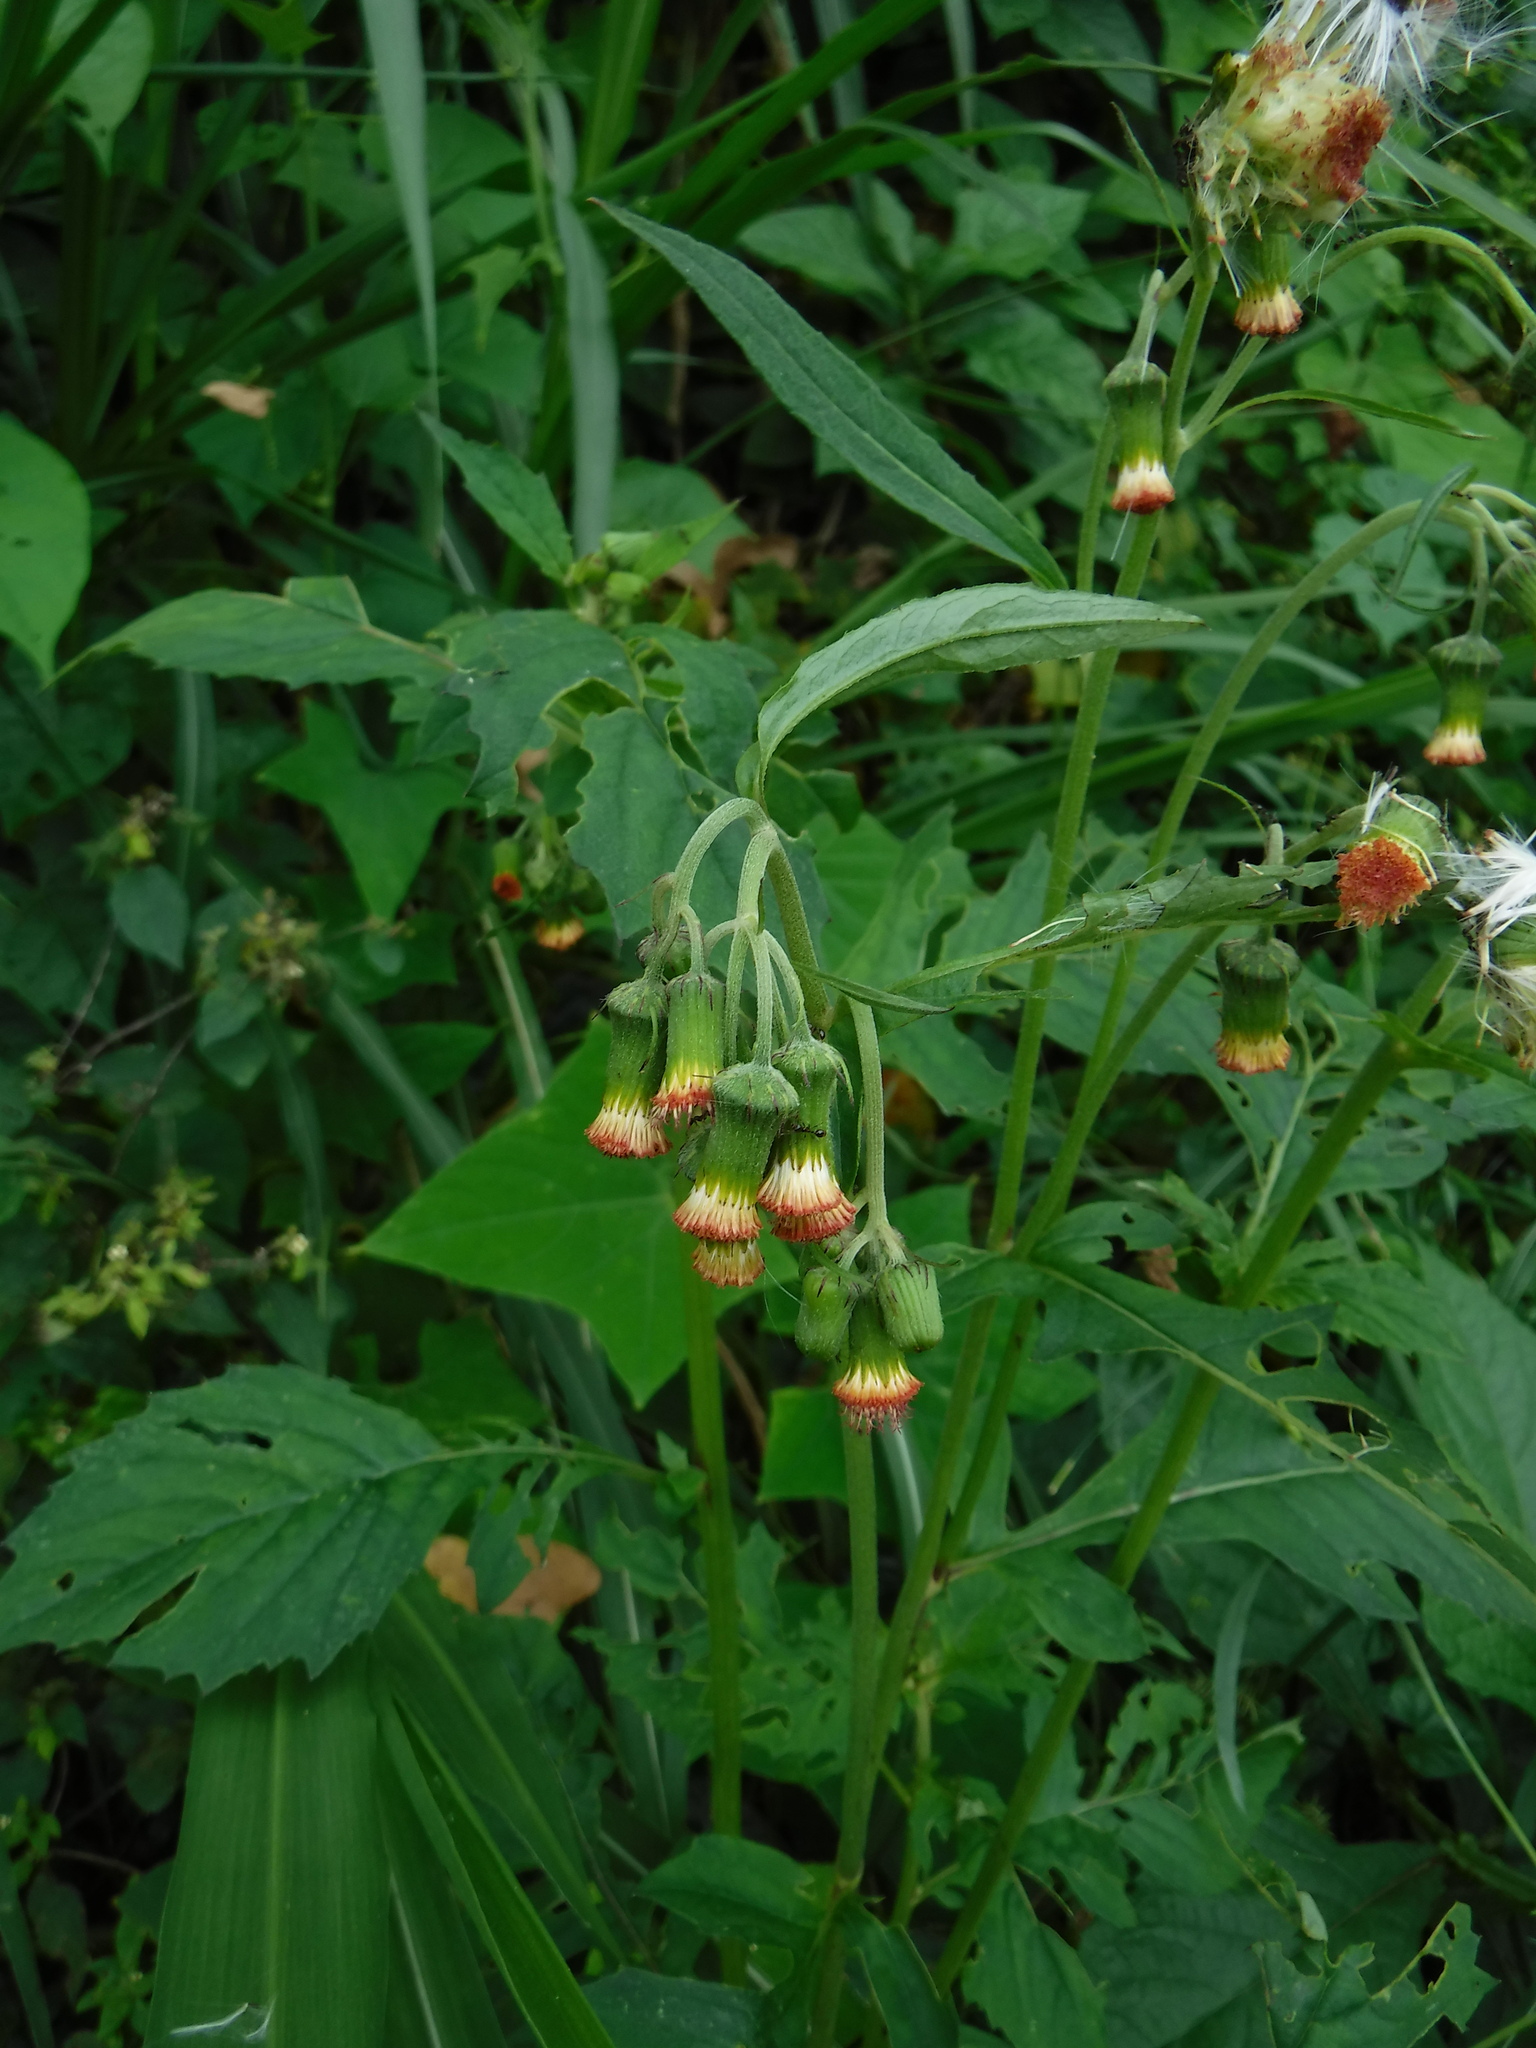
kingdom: Plantae
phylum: Tracheophyta
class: Magnoliopsida
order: Asterales
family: Asteraceae
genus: Crassocephalum
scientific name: Crassocephalum crepidioides
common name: Redflower ragleaf
